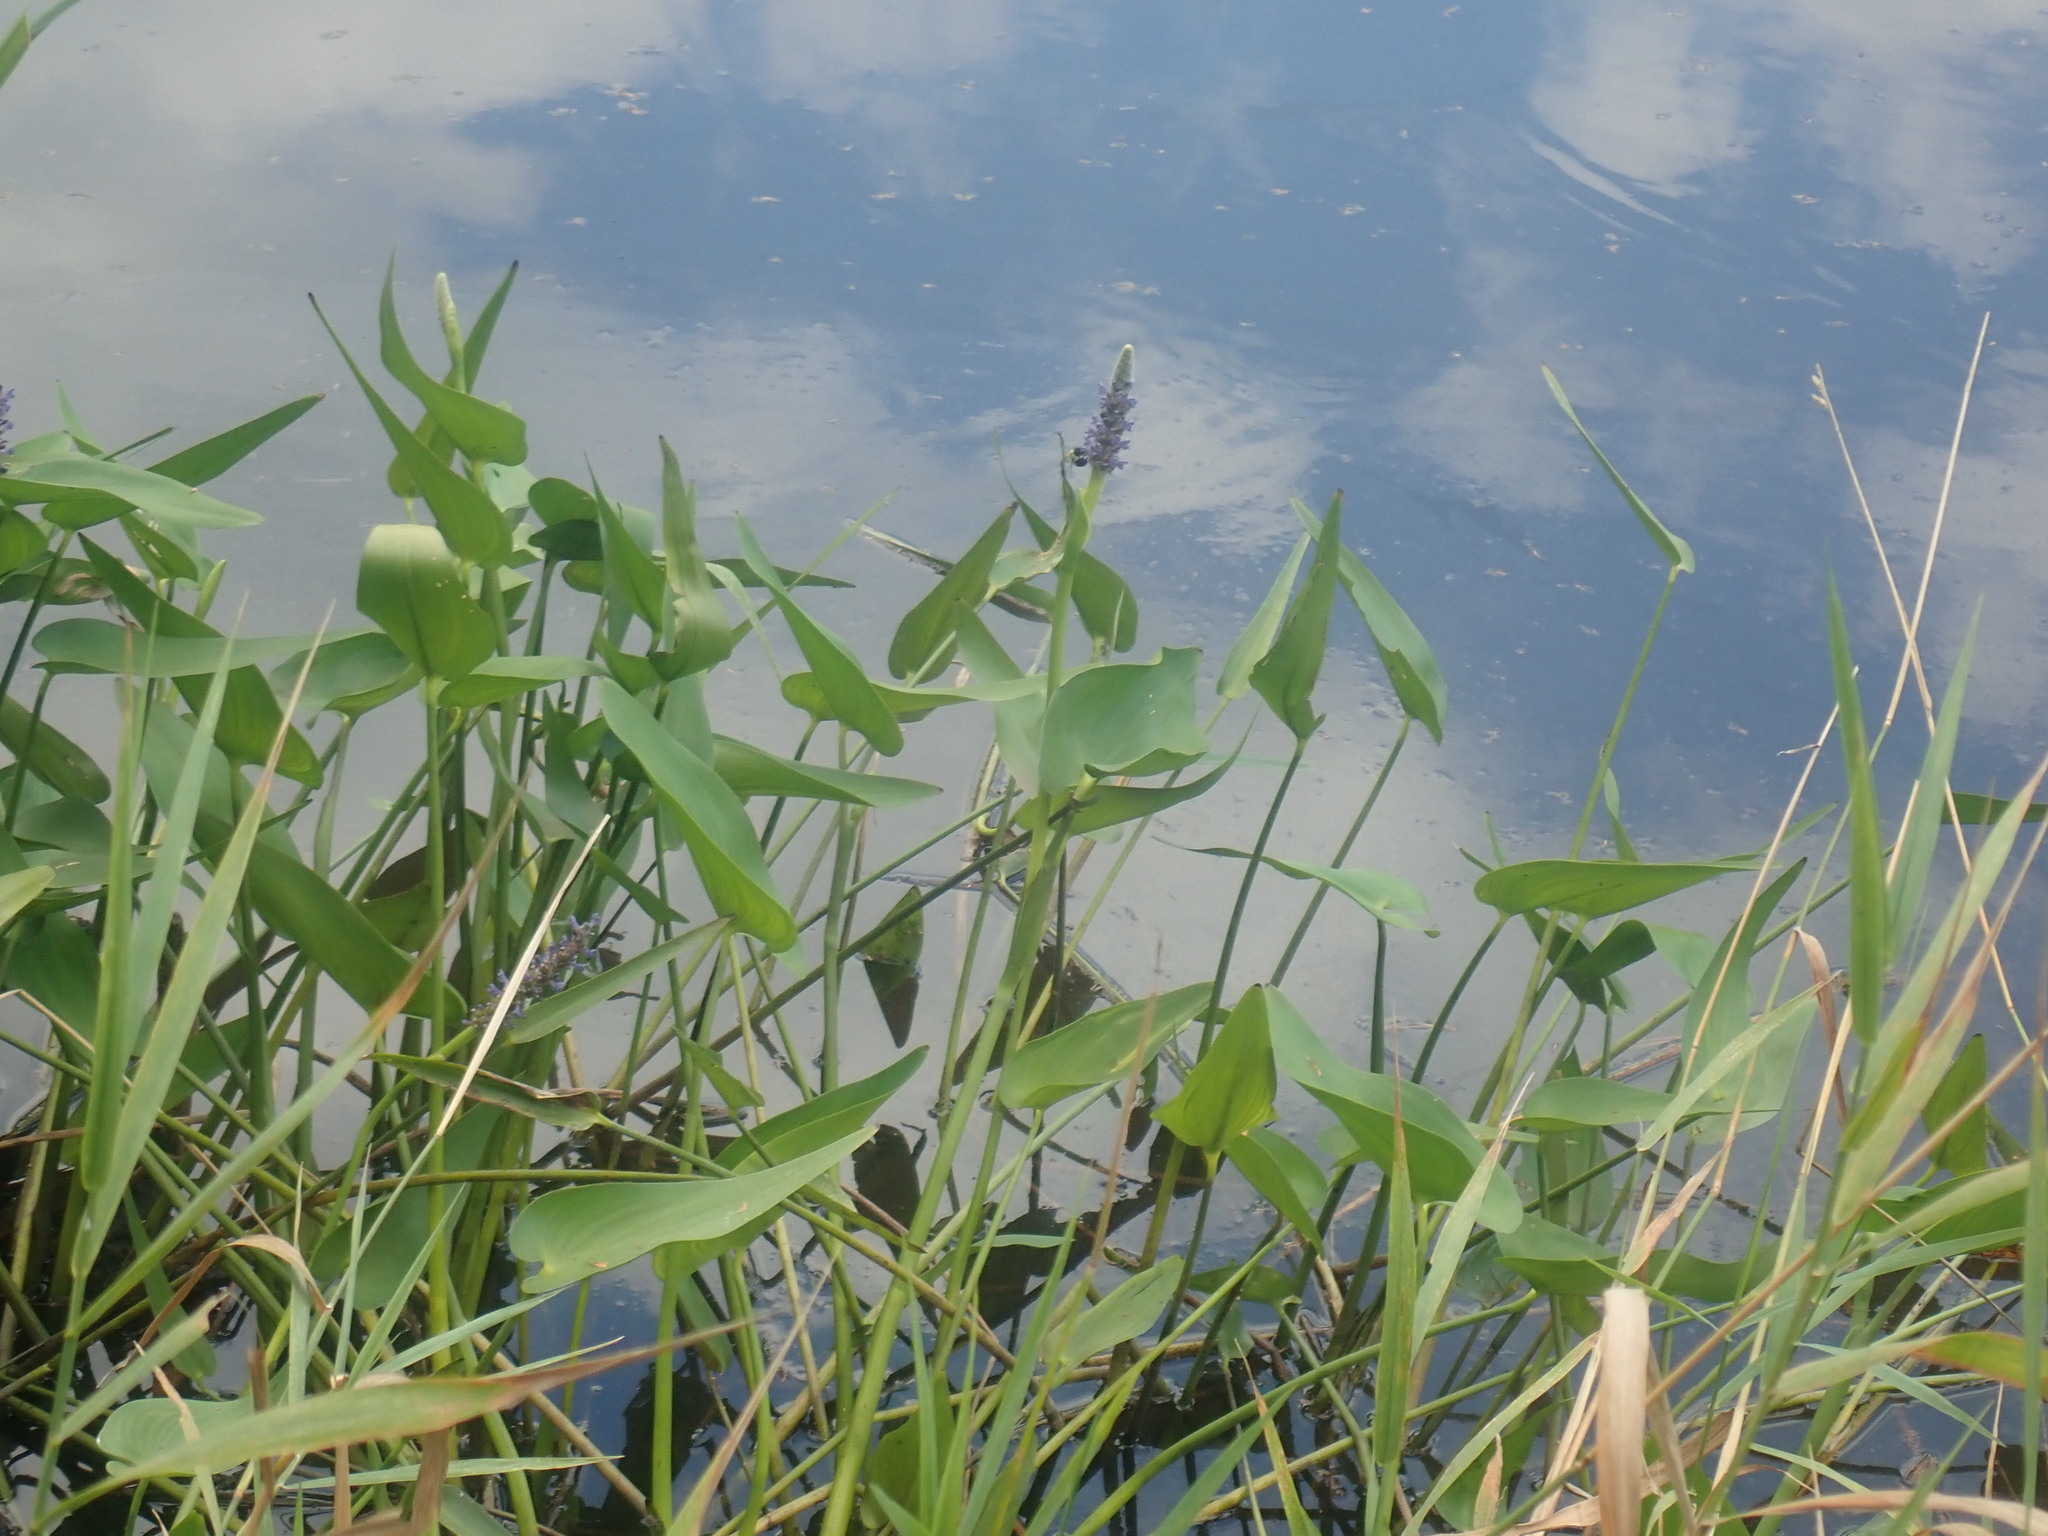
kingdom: Plantae
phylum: Tracheophyta
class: Liliopsida
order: Commelinales
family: Pontederiaceae
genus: Pontederia
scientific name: Pontederia cordata
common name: Pickerelweed
